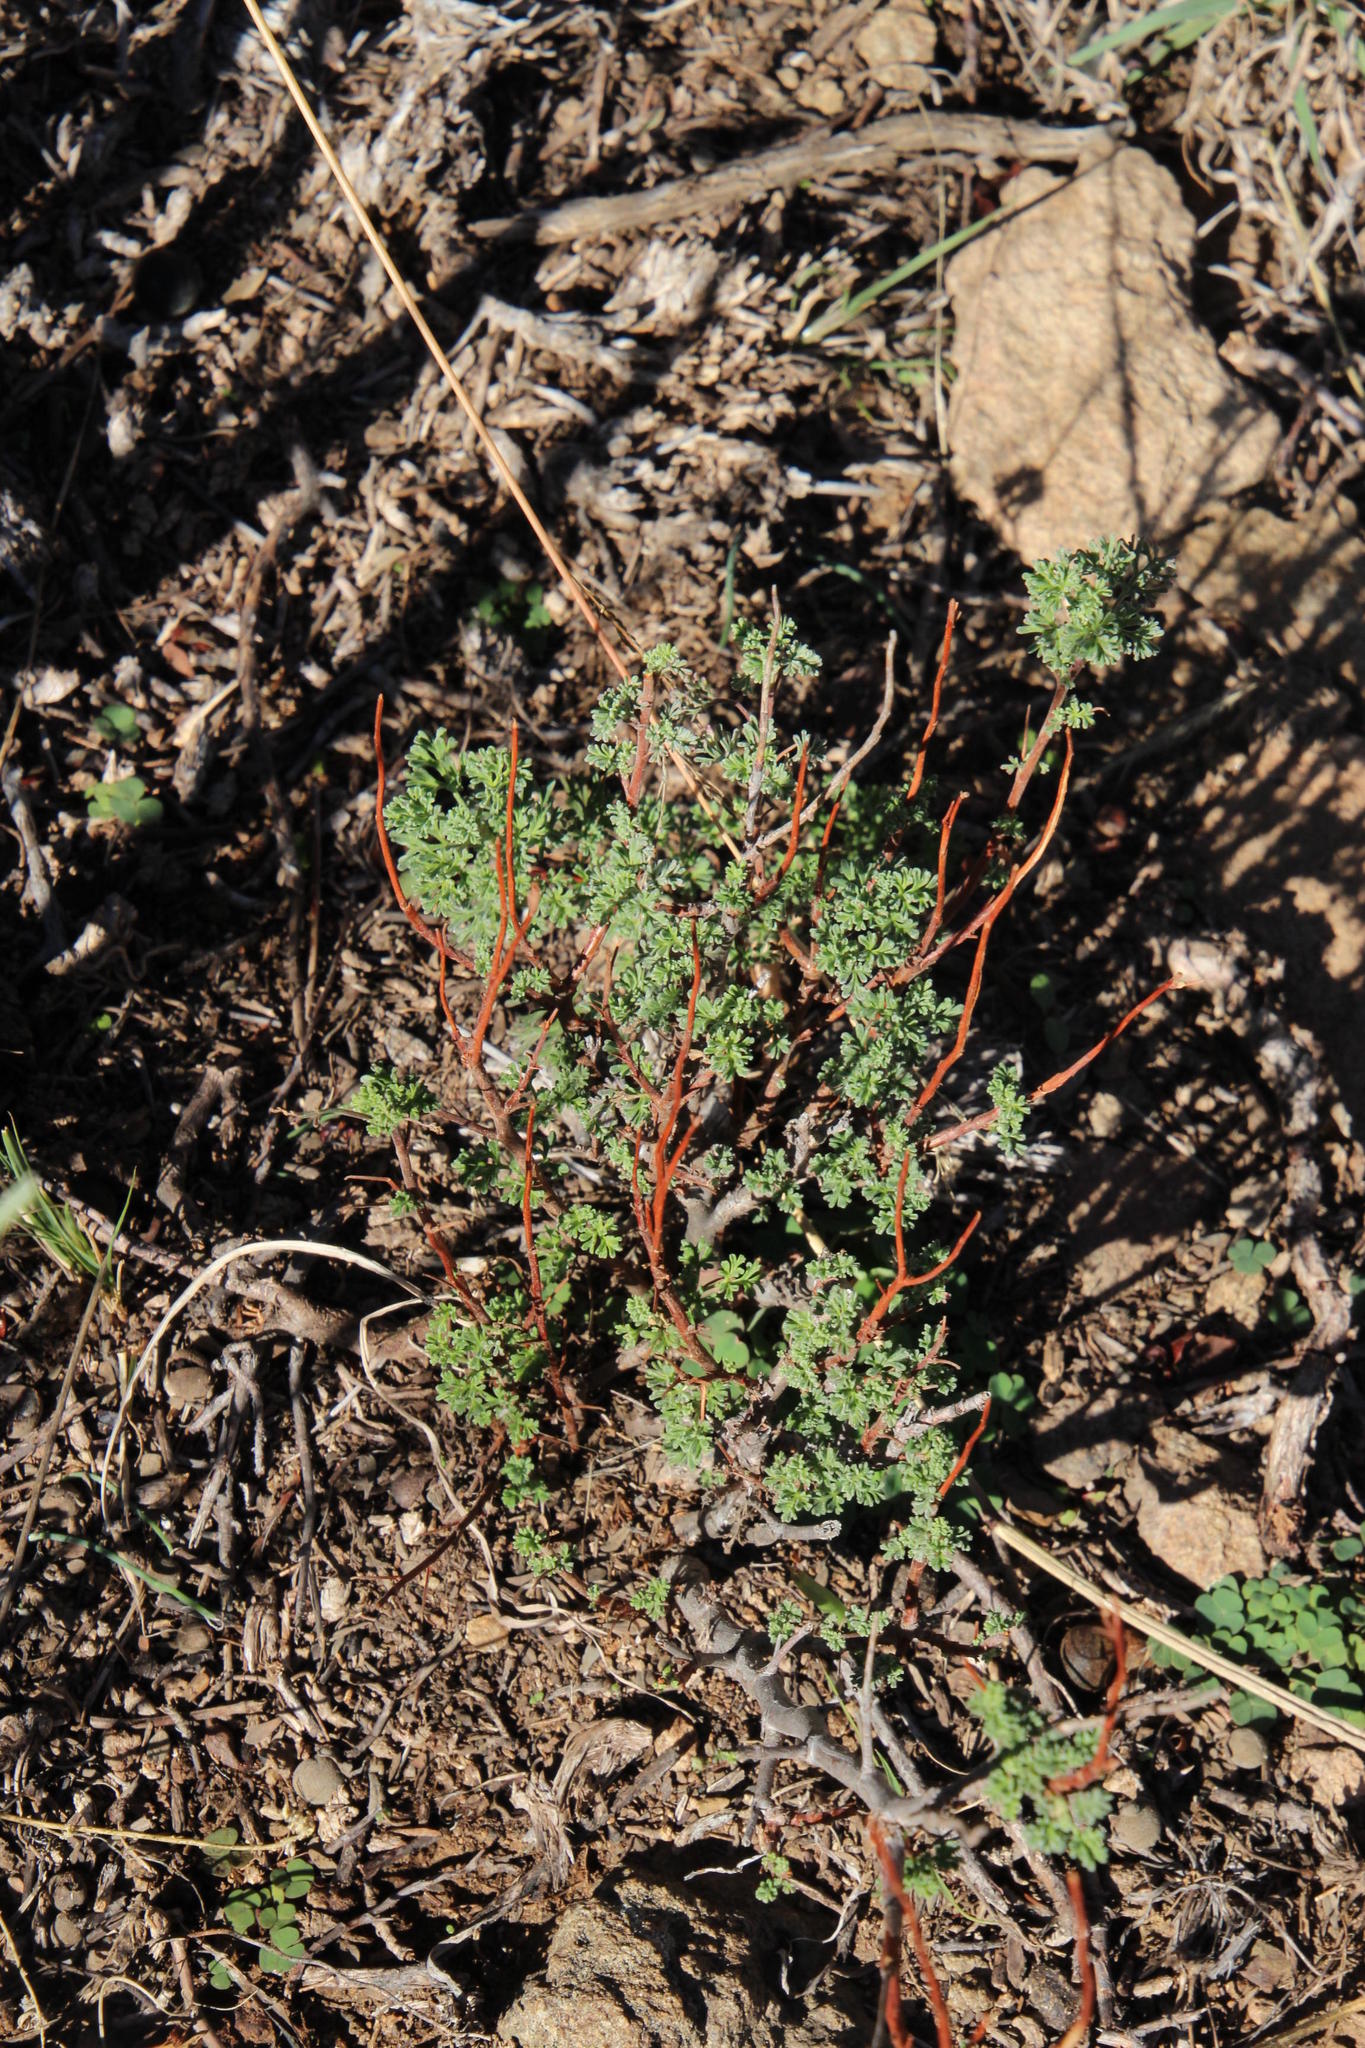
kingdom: Plantae
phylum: Tracheophyta
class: Magnoliopsida
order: Geraniales
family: Geraniaceae
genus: Pelargonium
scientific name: Pelargonium abrotanifolium
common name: Southernwood geranium
